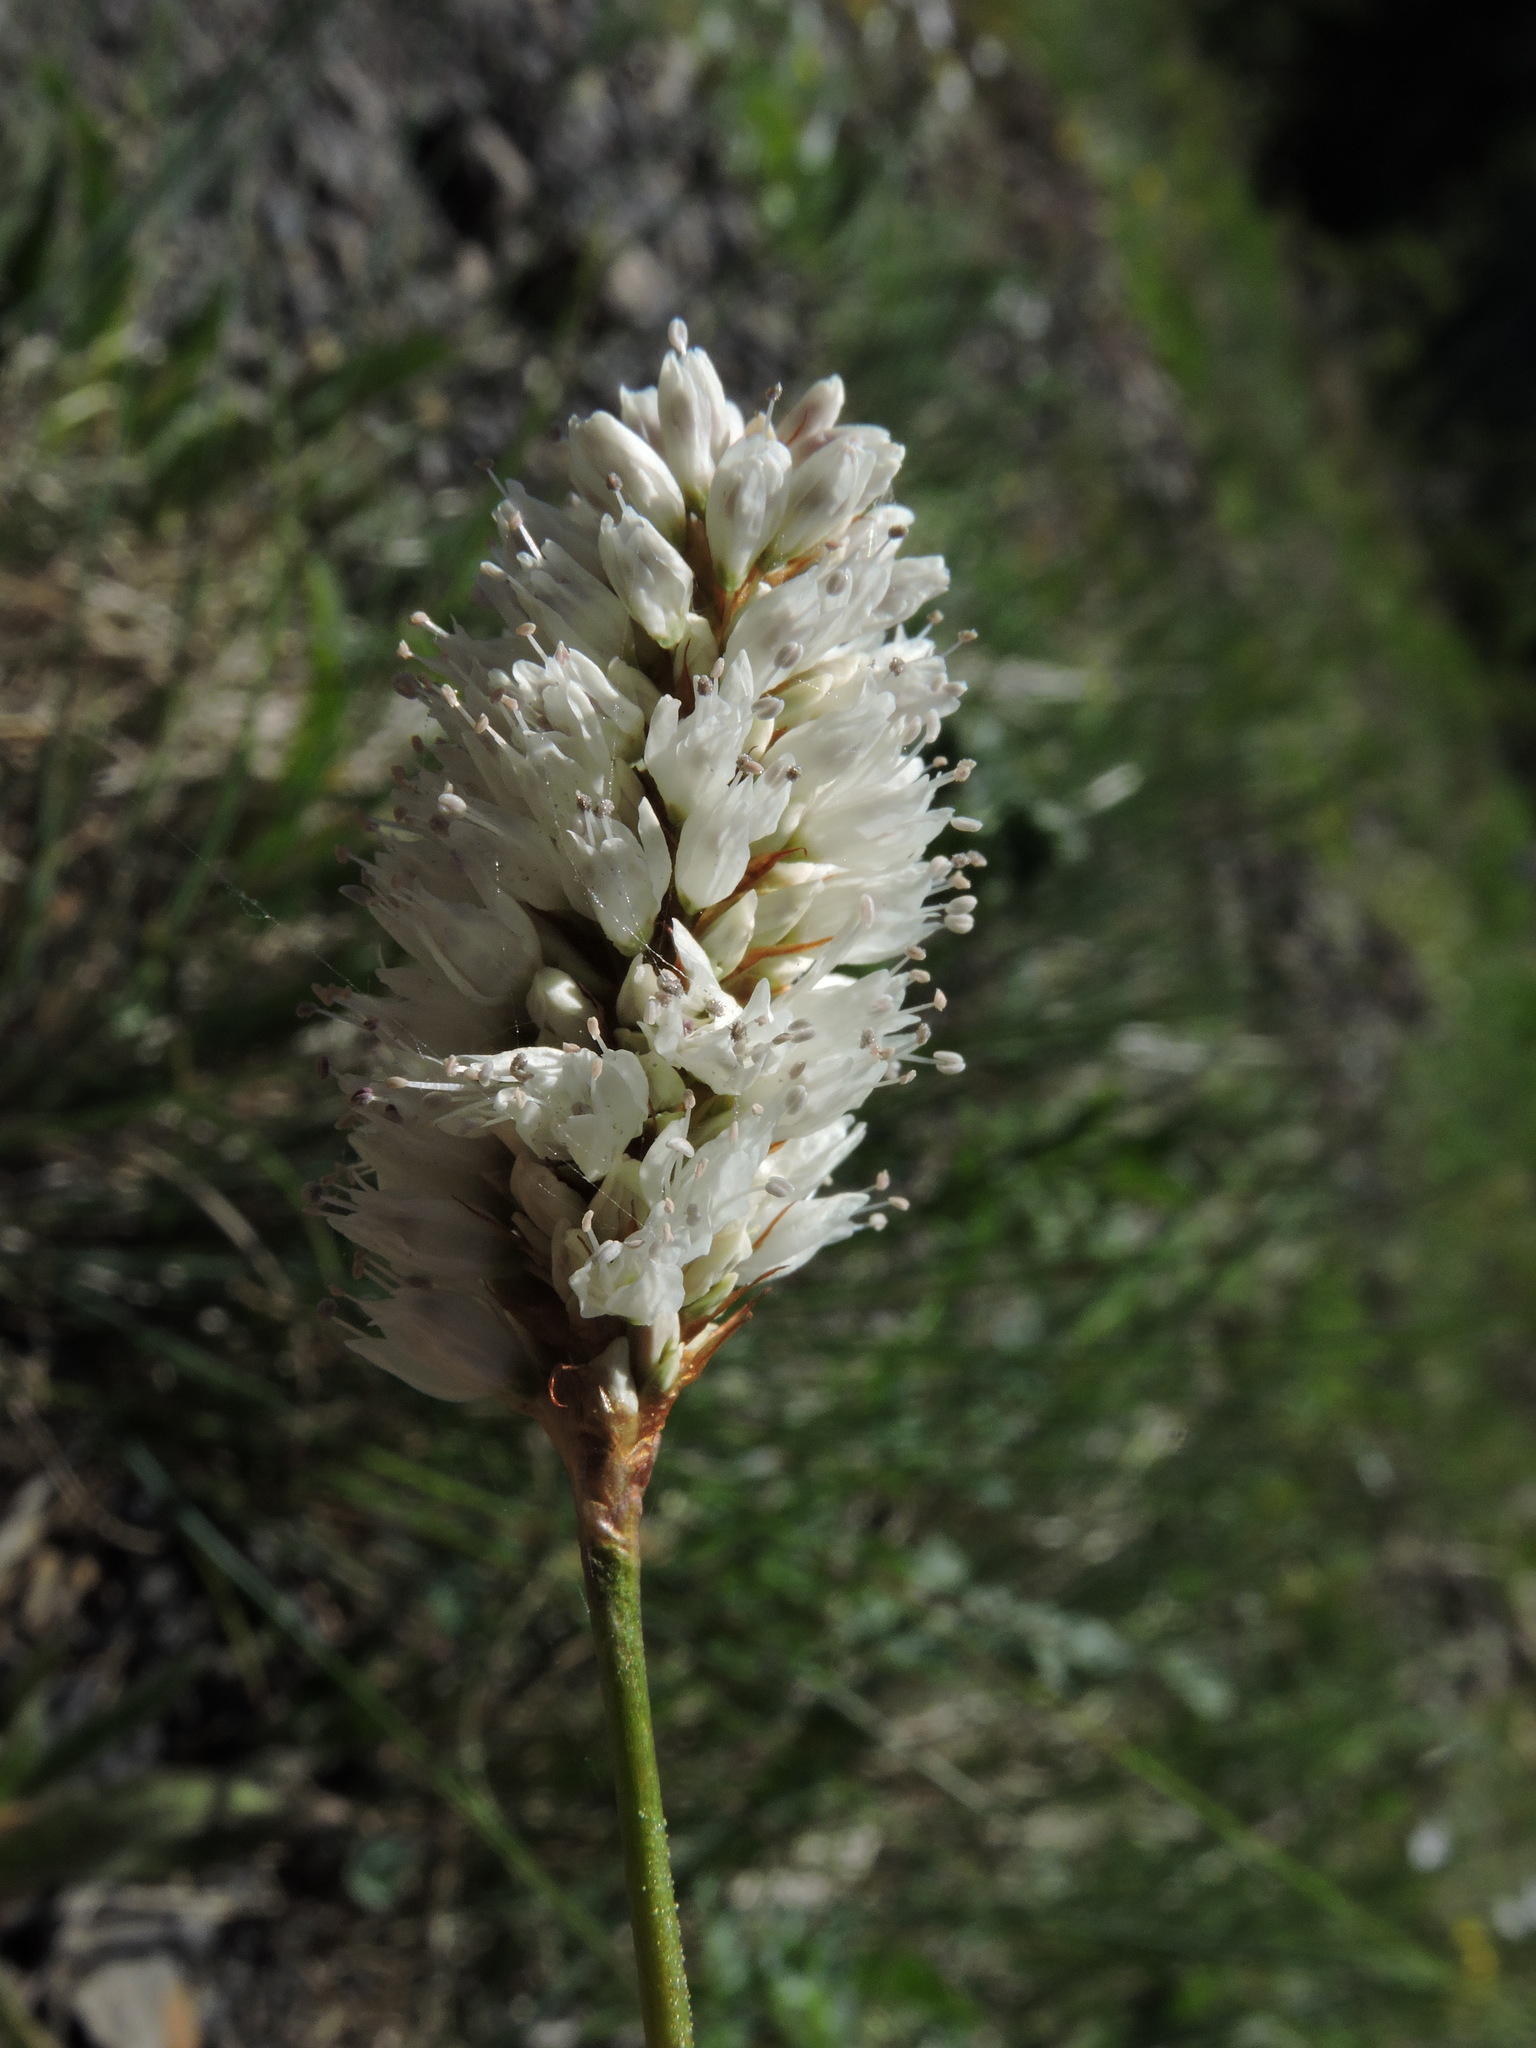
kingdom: Plantae
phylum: Tracheophyta
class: Magnoliopsida
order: Caryophyllales
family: Polygonaceae
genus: Bistorta
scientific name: Bistorta bistortoides
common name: American bistort
